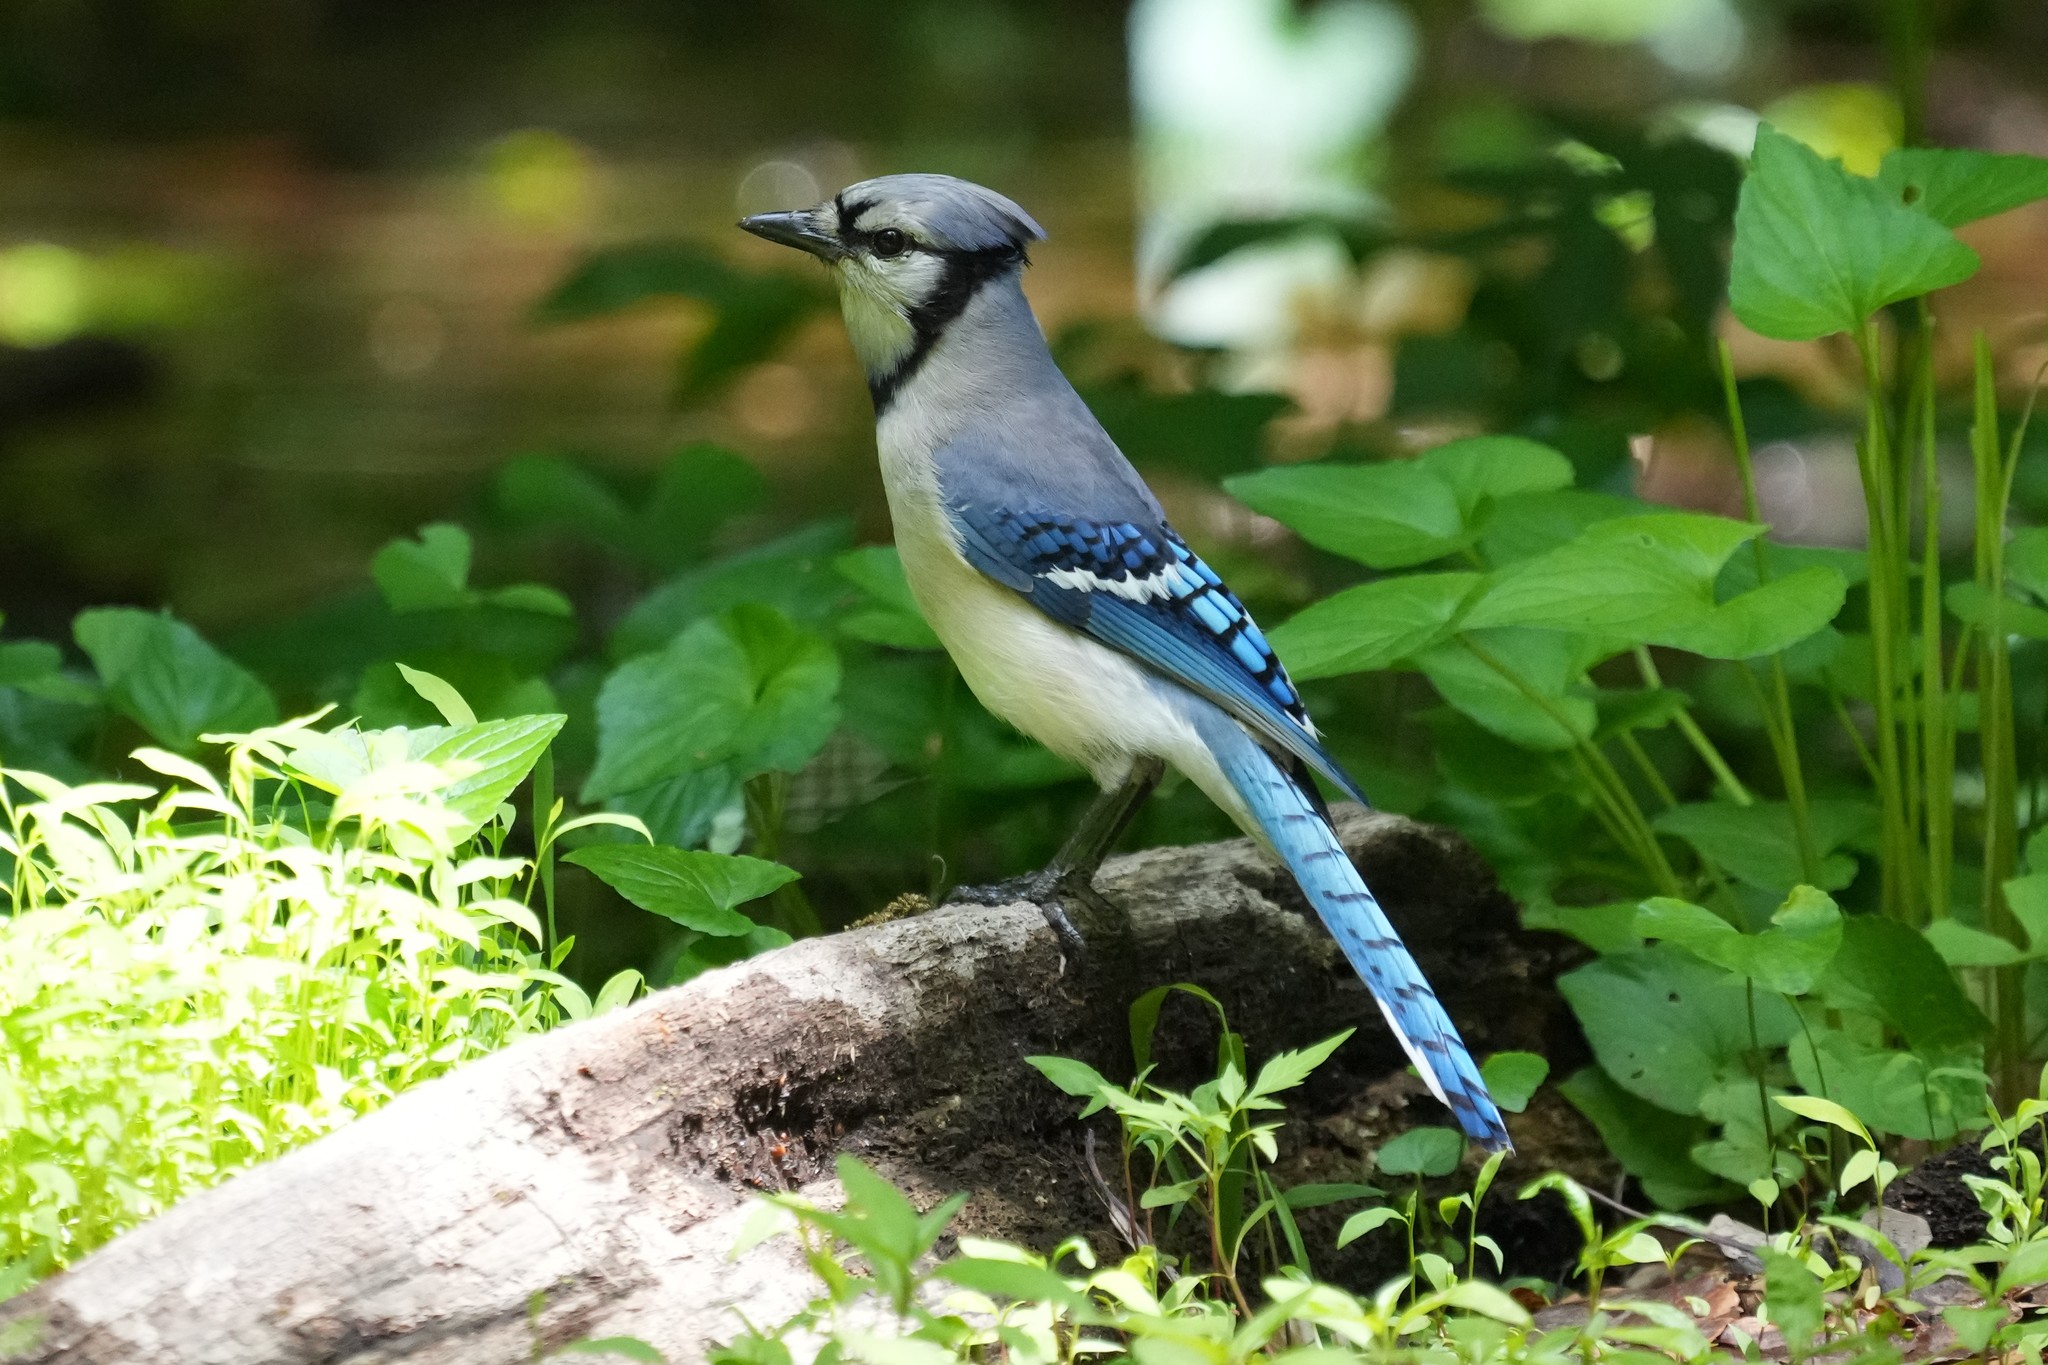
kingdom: Animalia
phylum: Chordata
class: Aves
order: Passeriformes
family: Corvidae
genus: Cyanocitta
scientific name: Cyanocitta cristata
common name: Blue jay
